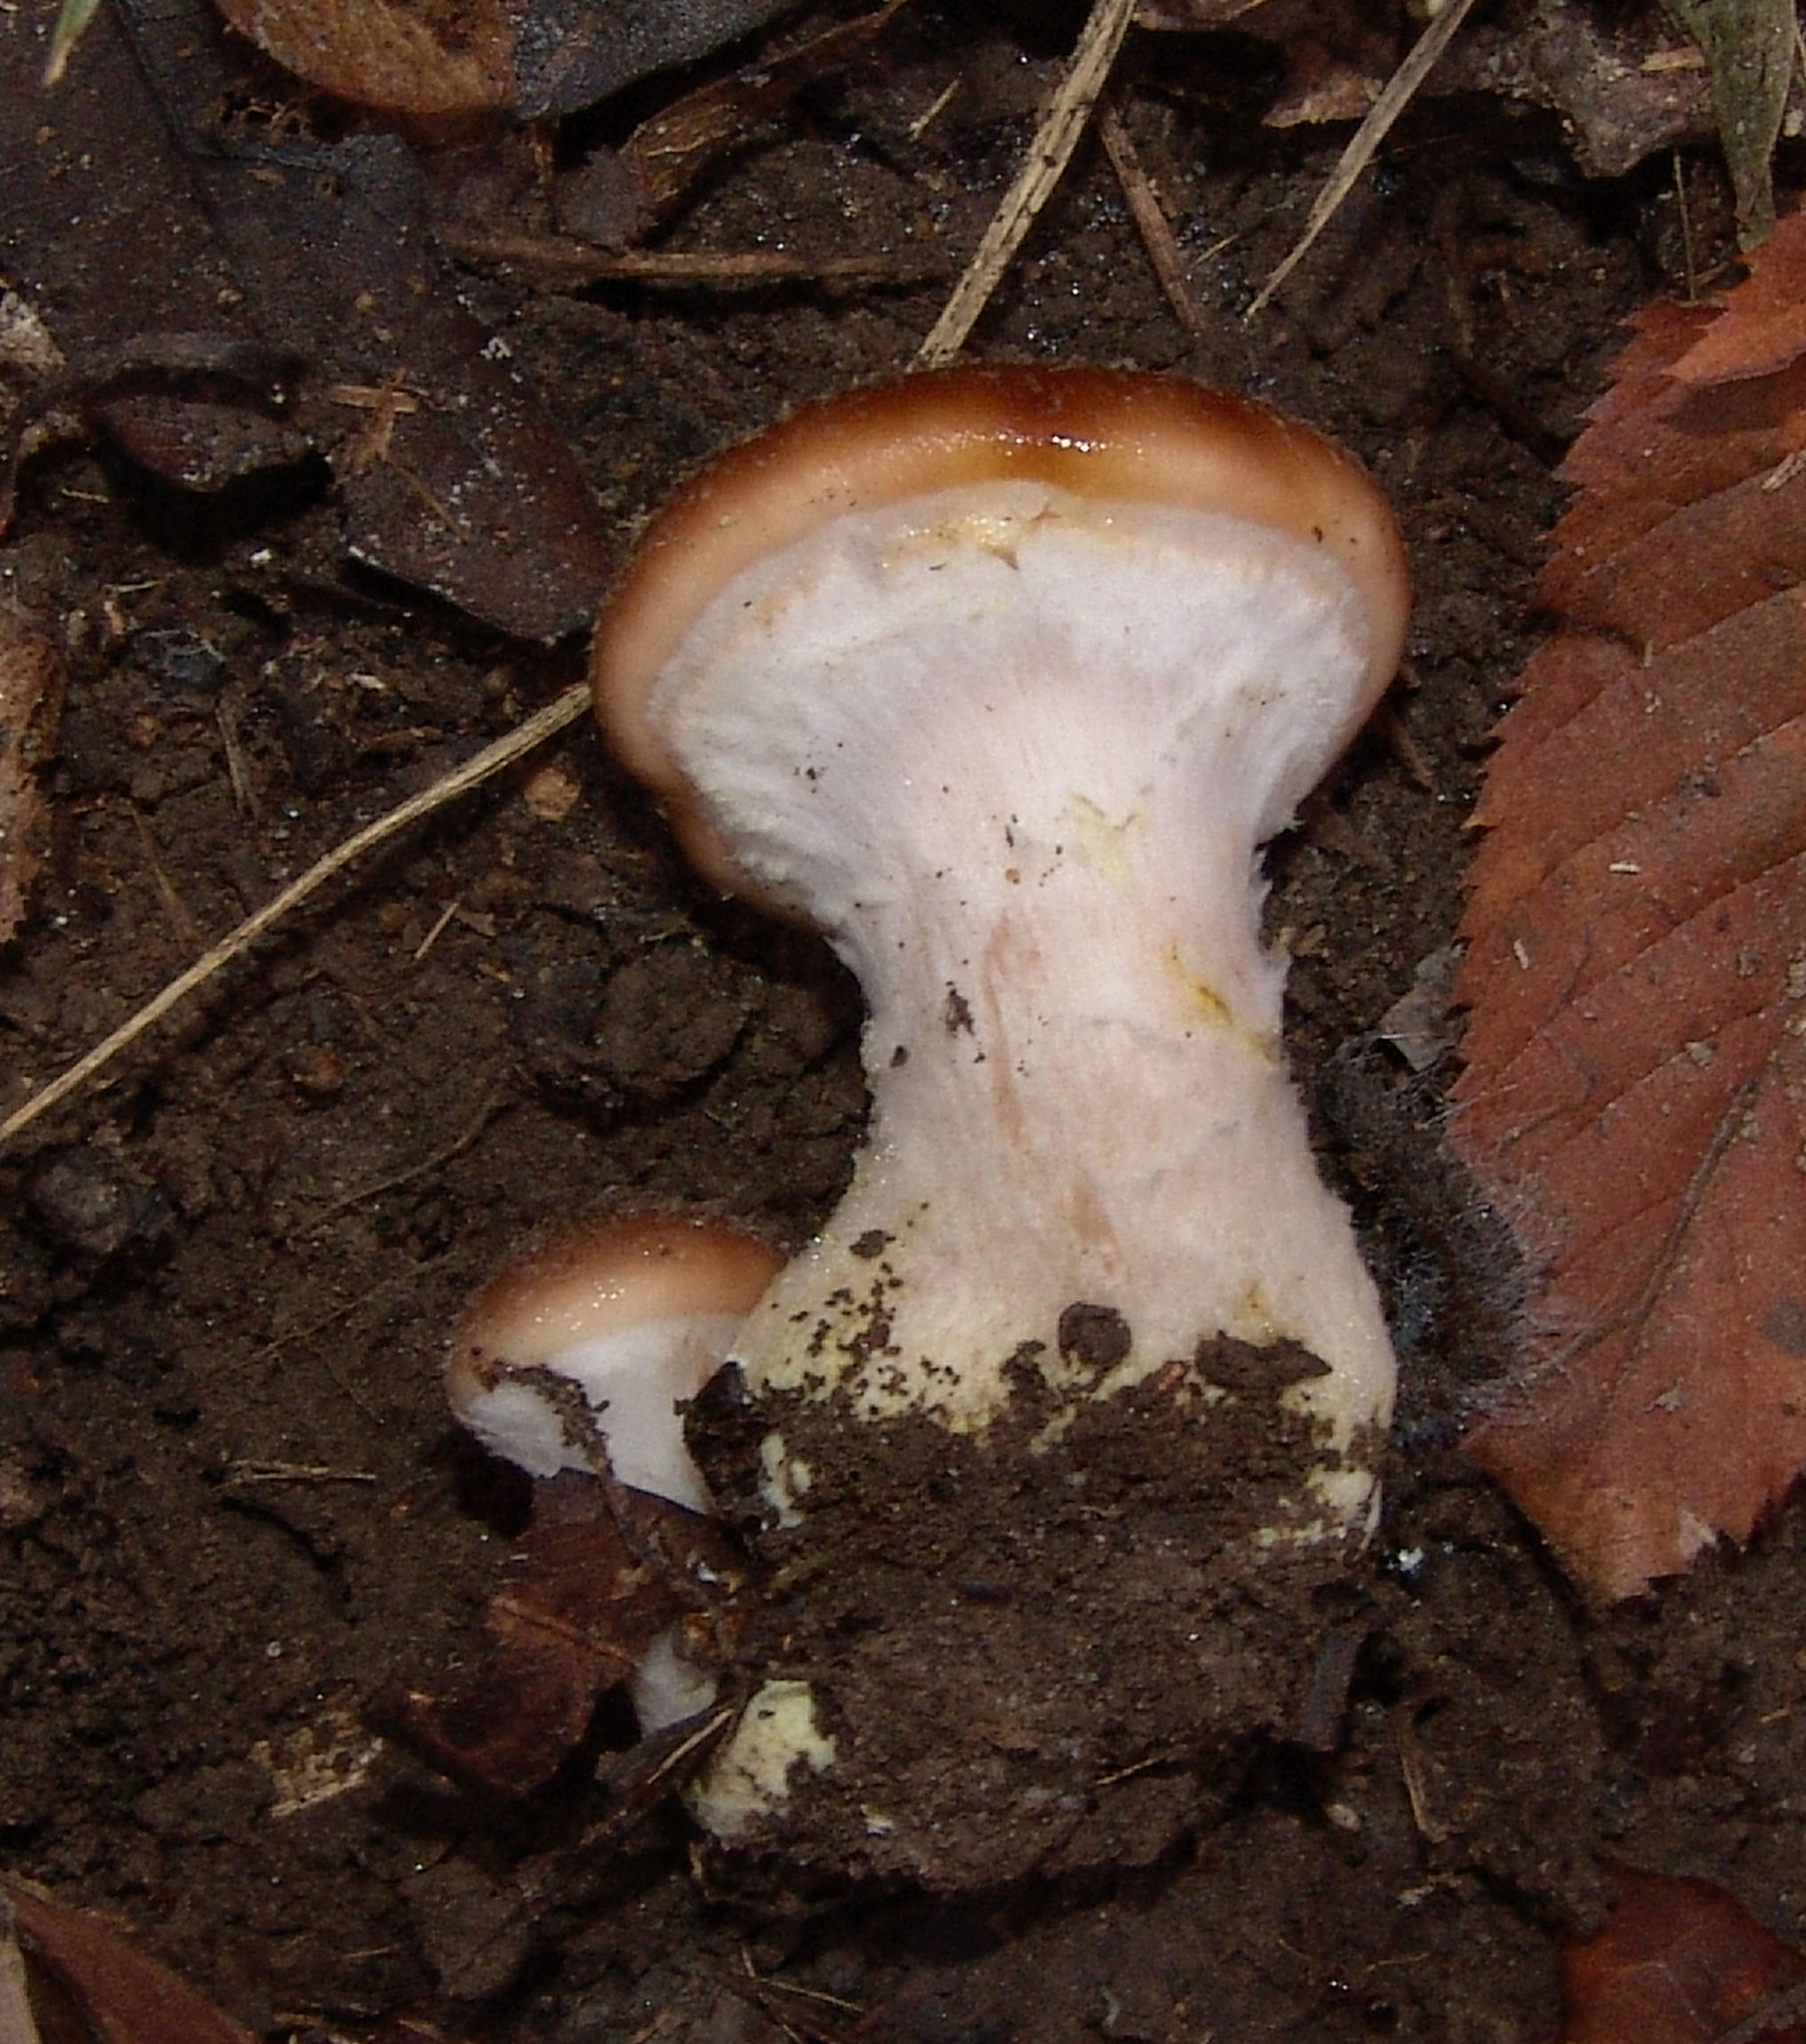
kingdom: Fungi
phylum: Basidiomycota
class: Agaricomycetes
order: Agaricales
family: Physalacriaceae
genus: Armillaria
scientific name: Armillaria gallica
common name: Bulbous honey fungus
